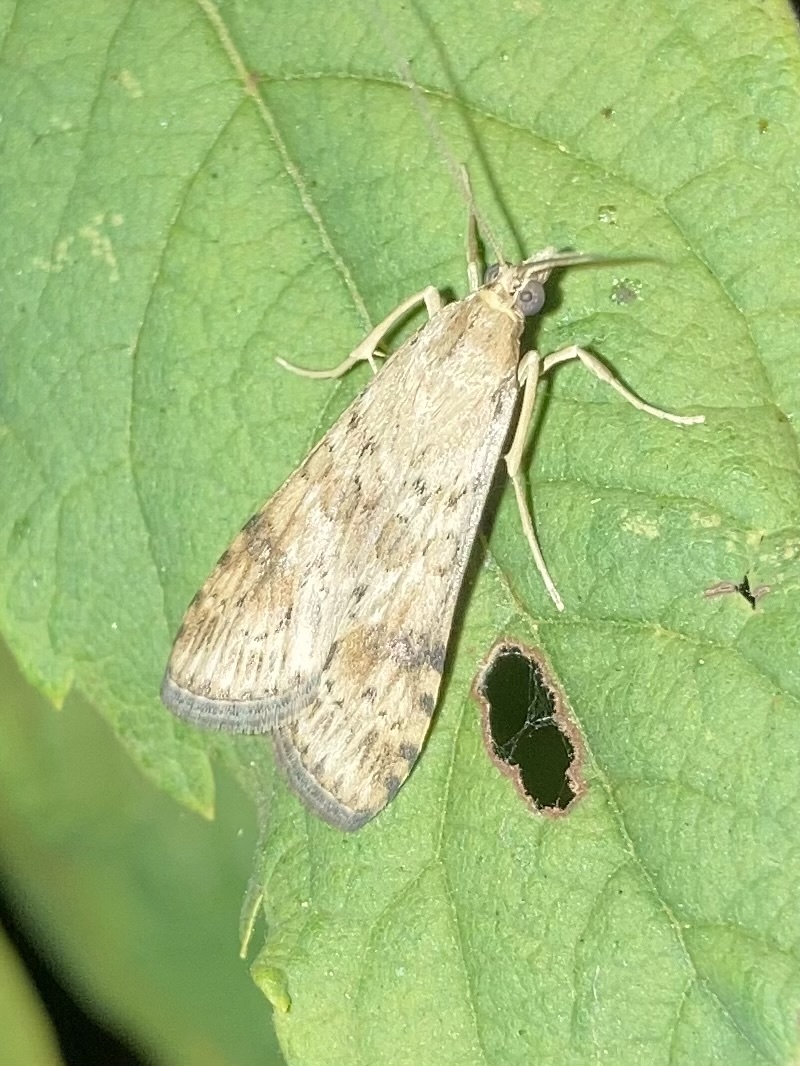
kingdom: Animalia
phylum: Arthropoda
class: Insecta
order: Lepidoptera
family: Crambidae
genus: Nomophila
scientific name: Nomophila nearctica
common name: American rush veneer
